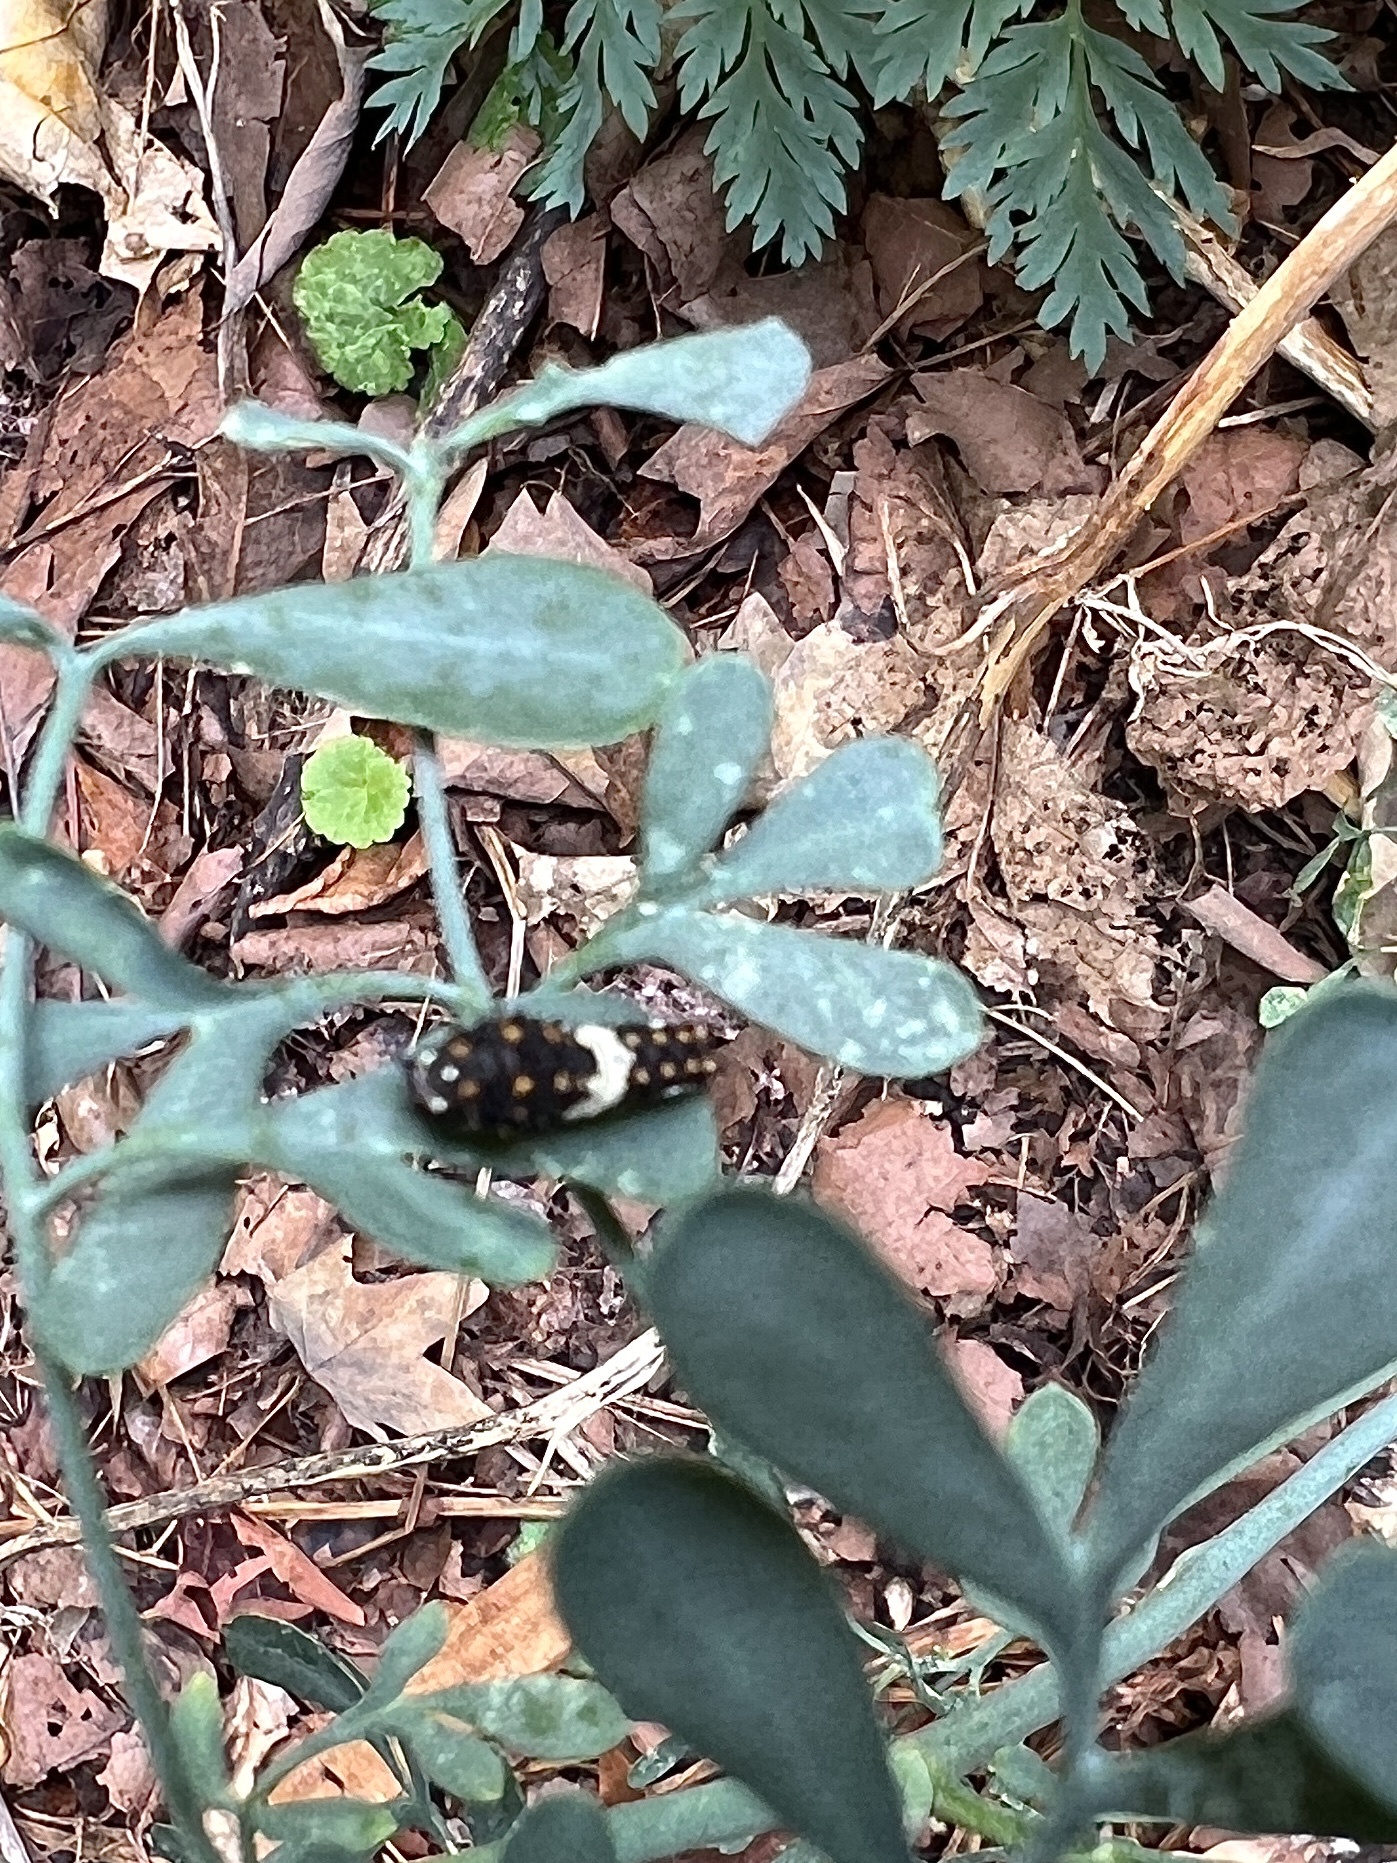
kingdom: Animalia
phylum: Arthropoda
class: Insecta
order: Lepidoptera
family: Papilionidae
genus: Papilio
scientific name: Papilio polyxenes
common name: Black swallowtail
